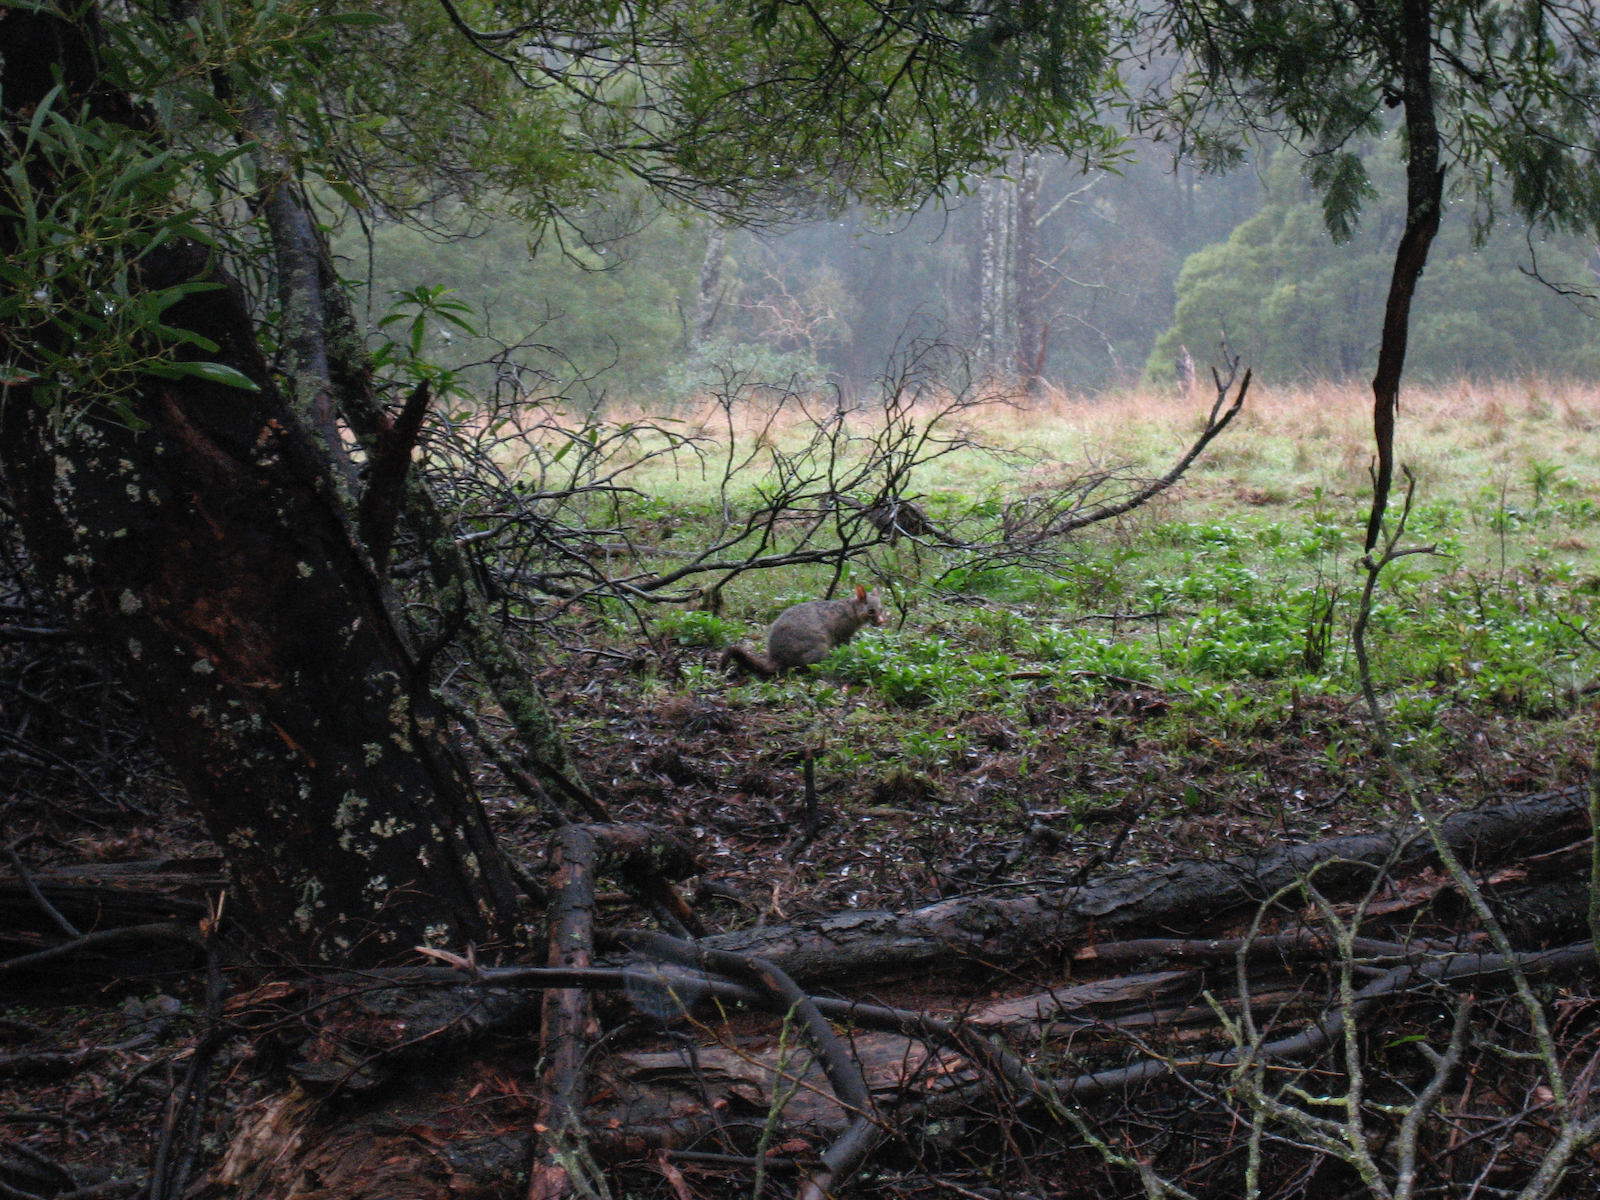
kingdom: Animalia
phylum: Chordata
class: Mammalia
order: Diprotodontia
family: Phalangeridae
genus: Trichosurus
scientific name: Trichosurus vulpecula
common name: Common brushtail
